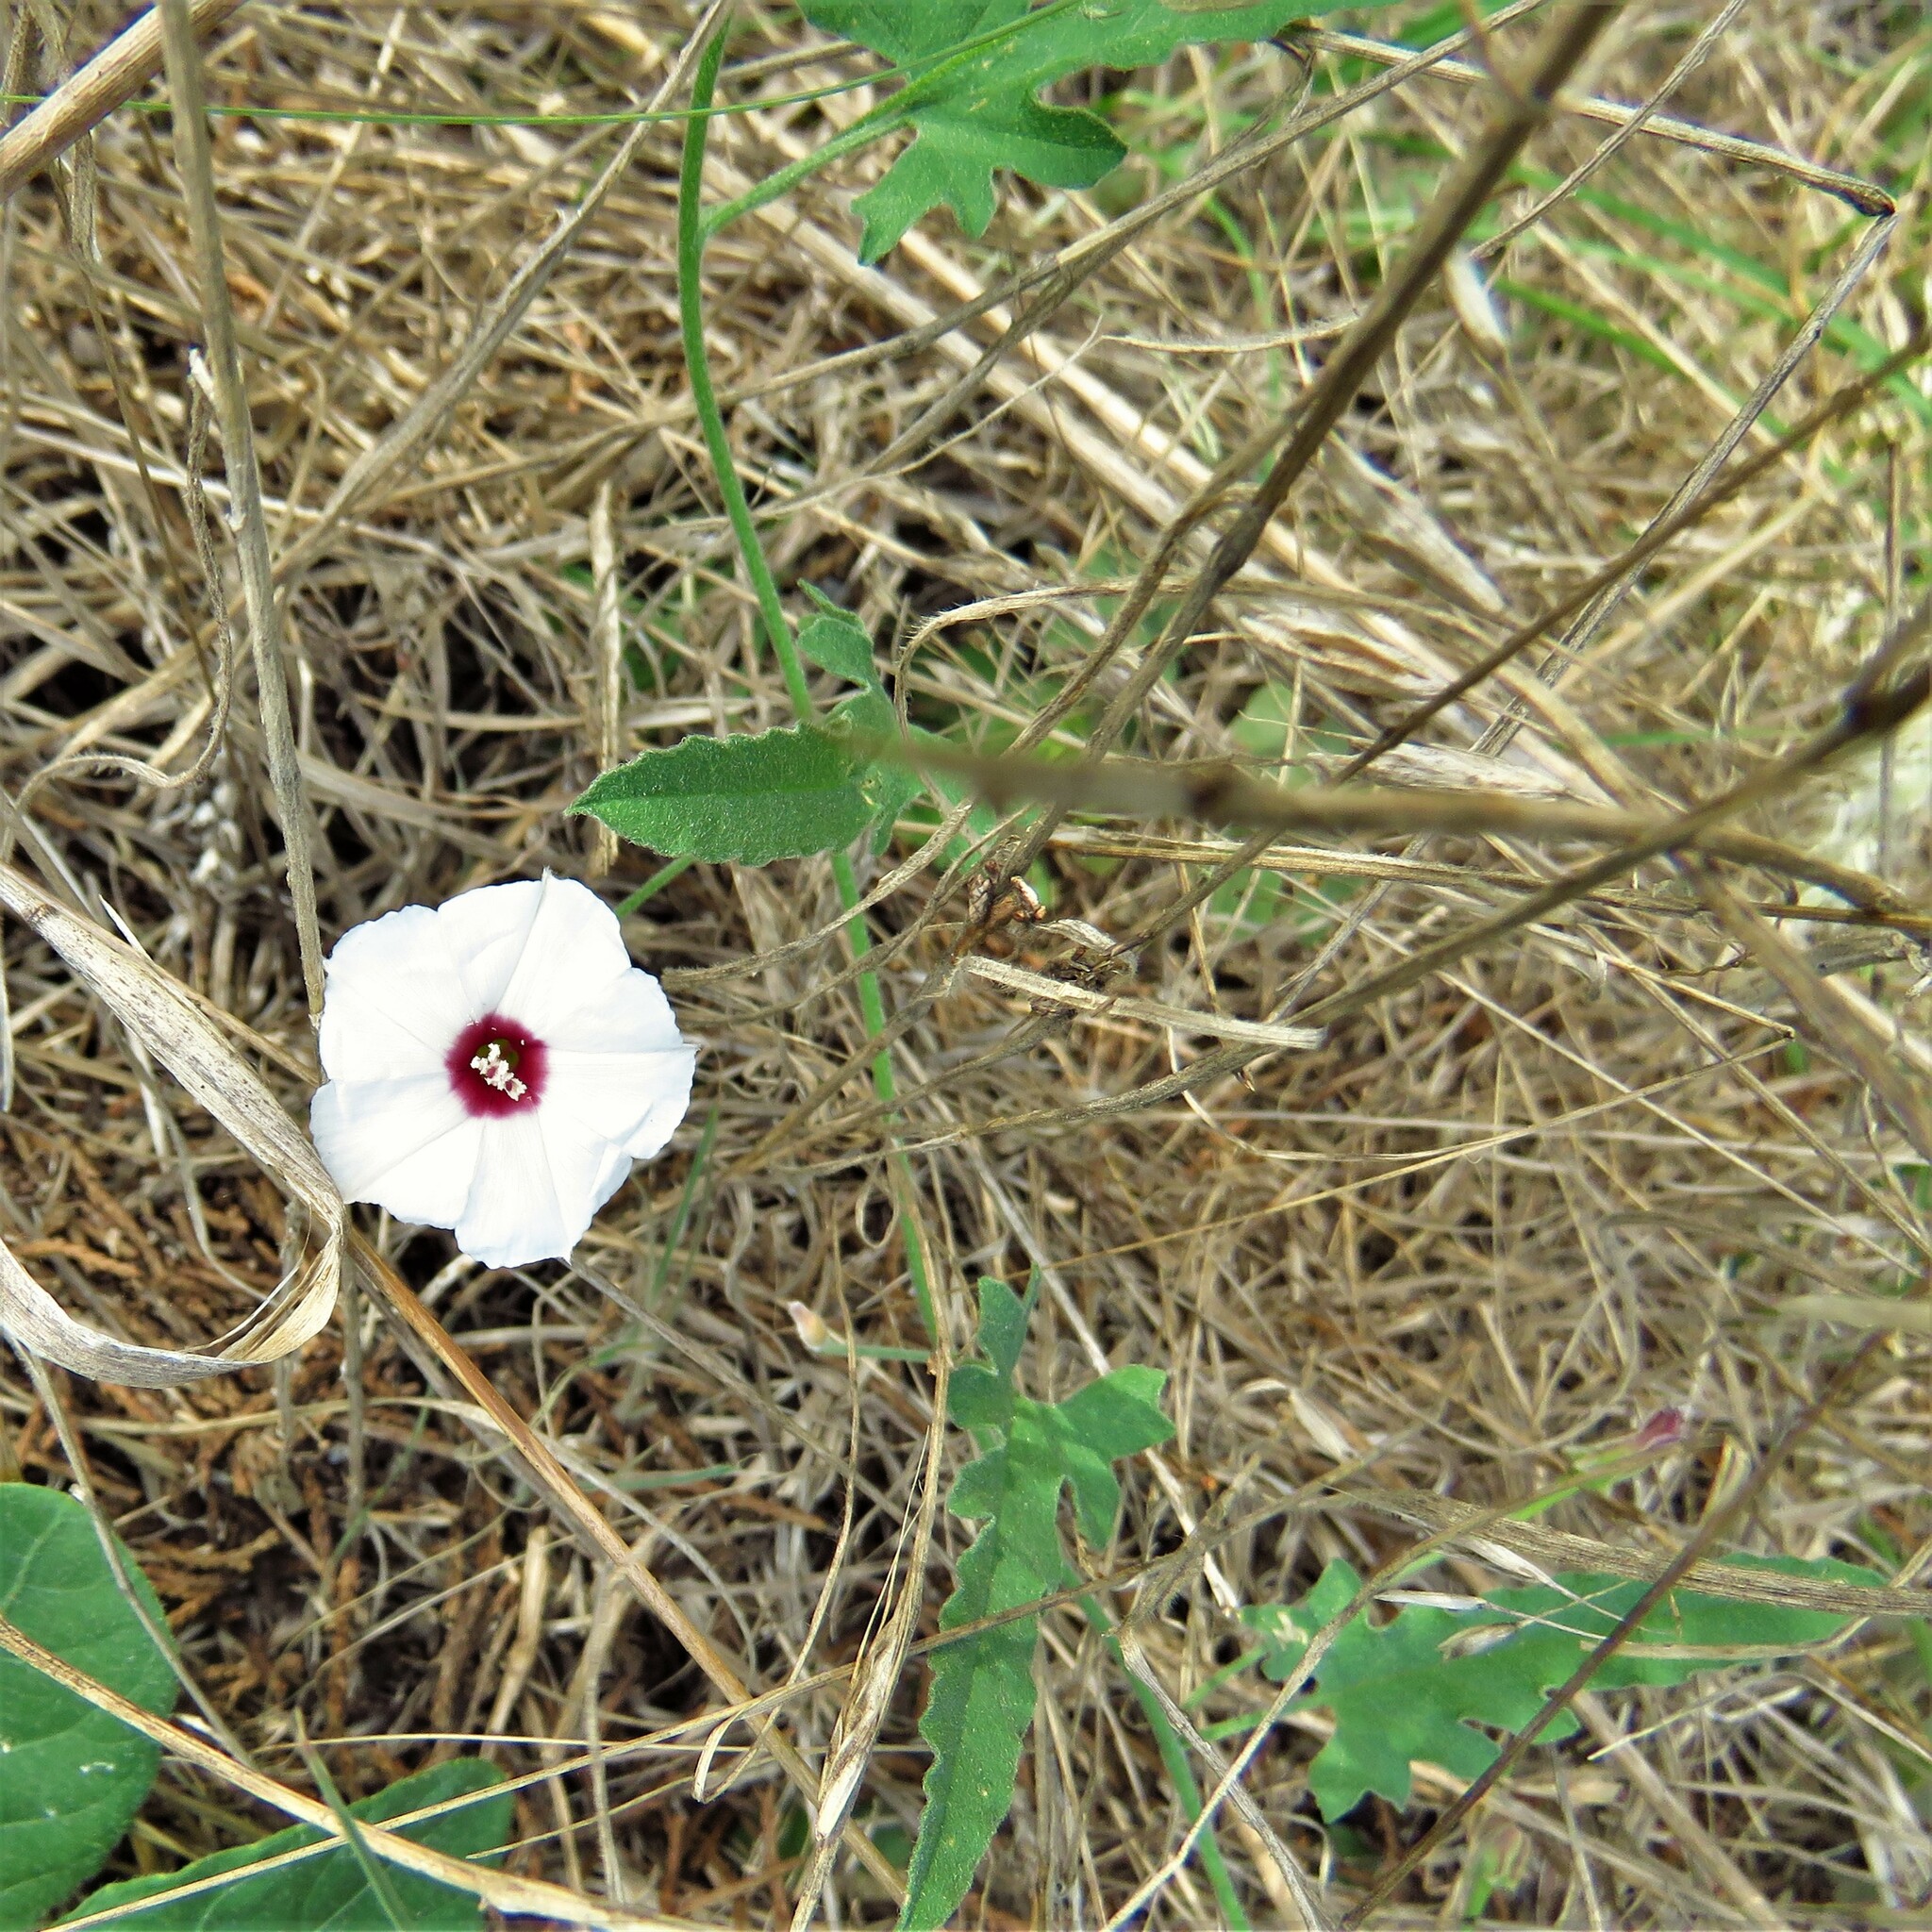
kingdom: Plantae
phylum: Tracheophyta
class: Magnoliopsida
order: Solanales
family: Convolvulaceae
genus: Convolvulus
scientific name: Convolvulus equitans
